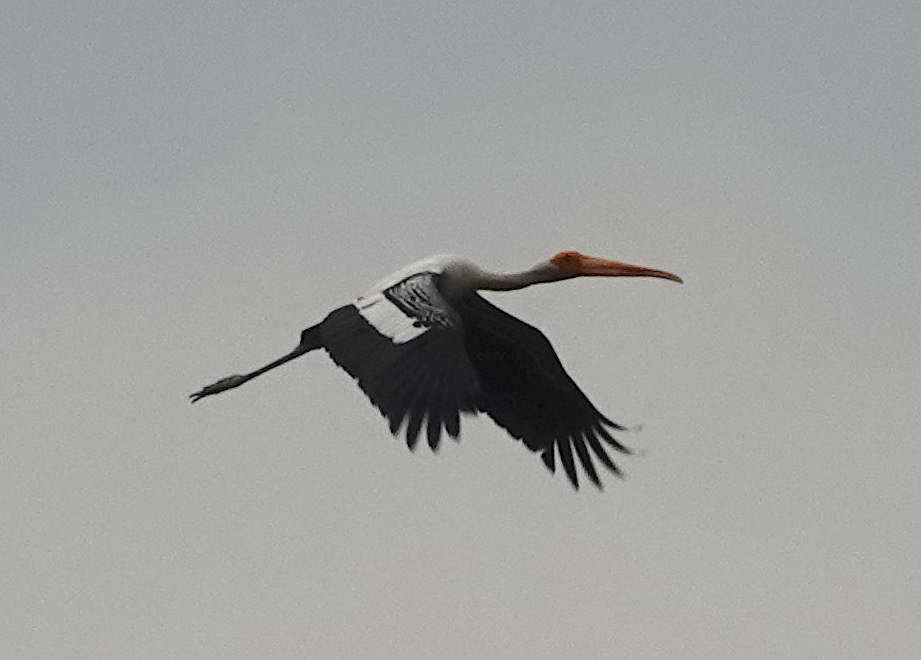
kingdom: Animalia
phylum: Chordata
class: Aves
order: Ciconiiformes
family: Ciconiidae
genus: Mycteria
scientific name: Mycteria leucocephala
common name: Painted stork
